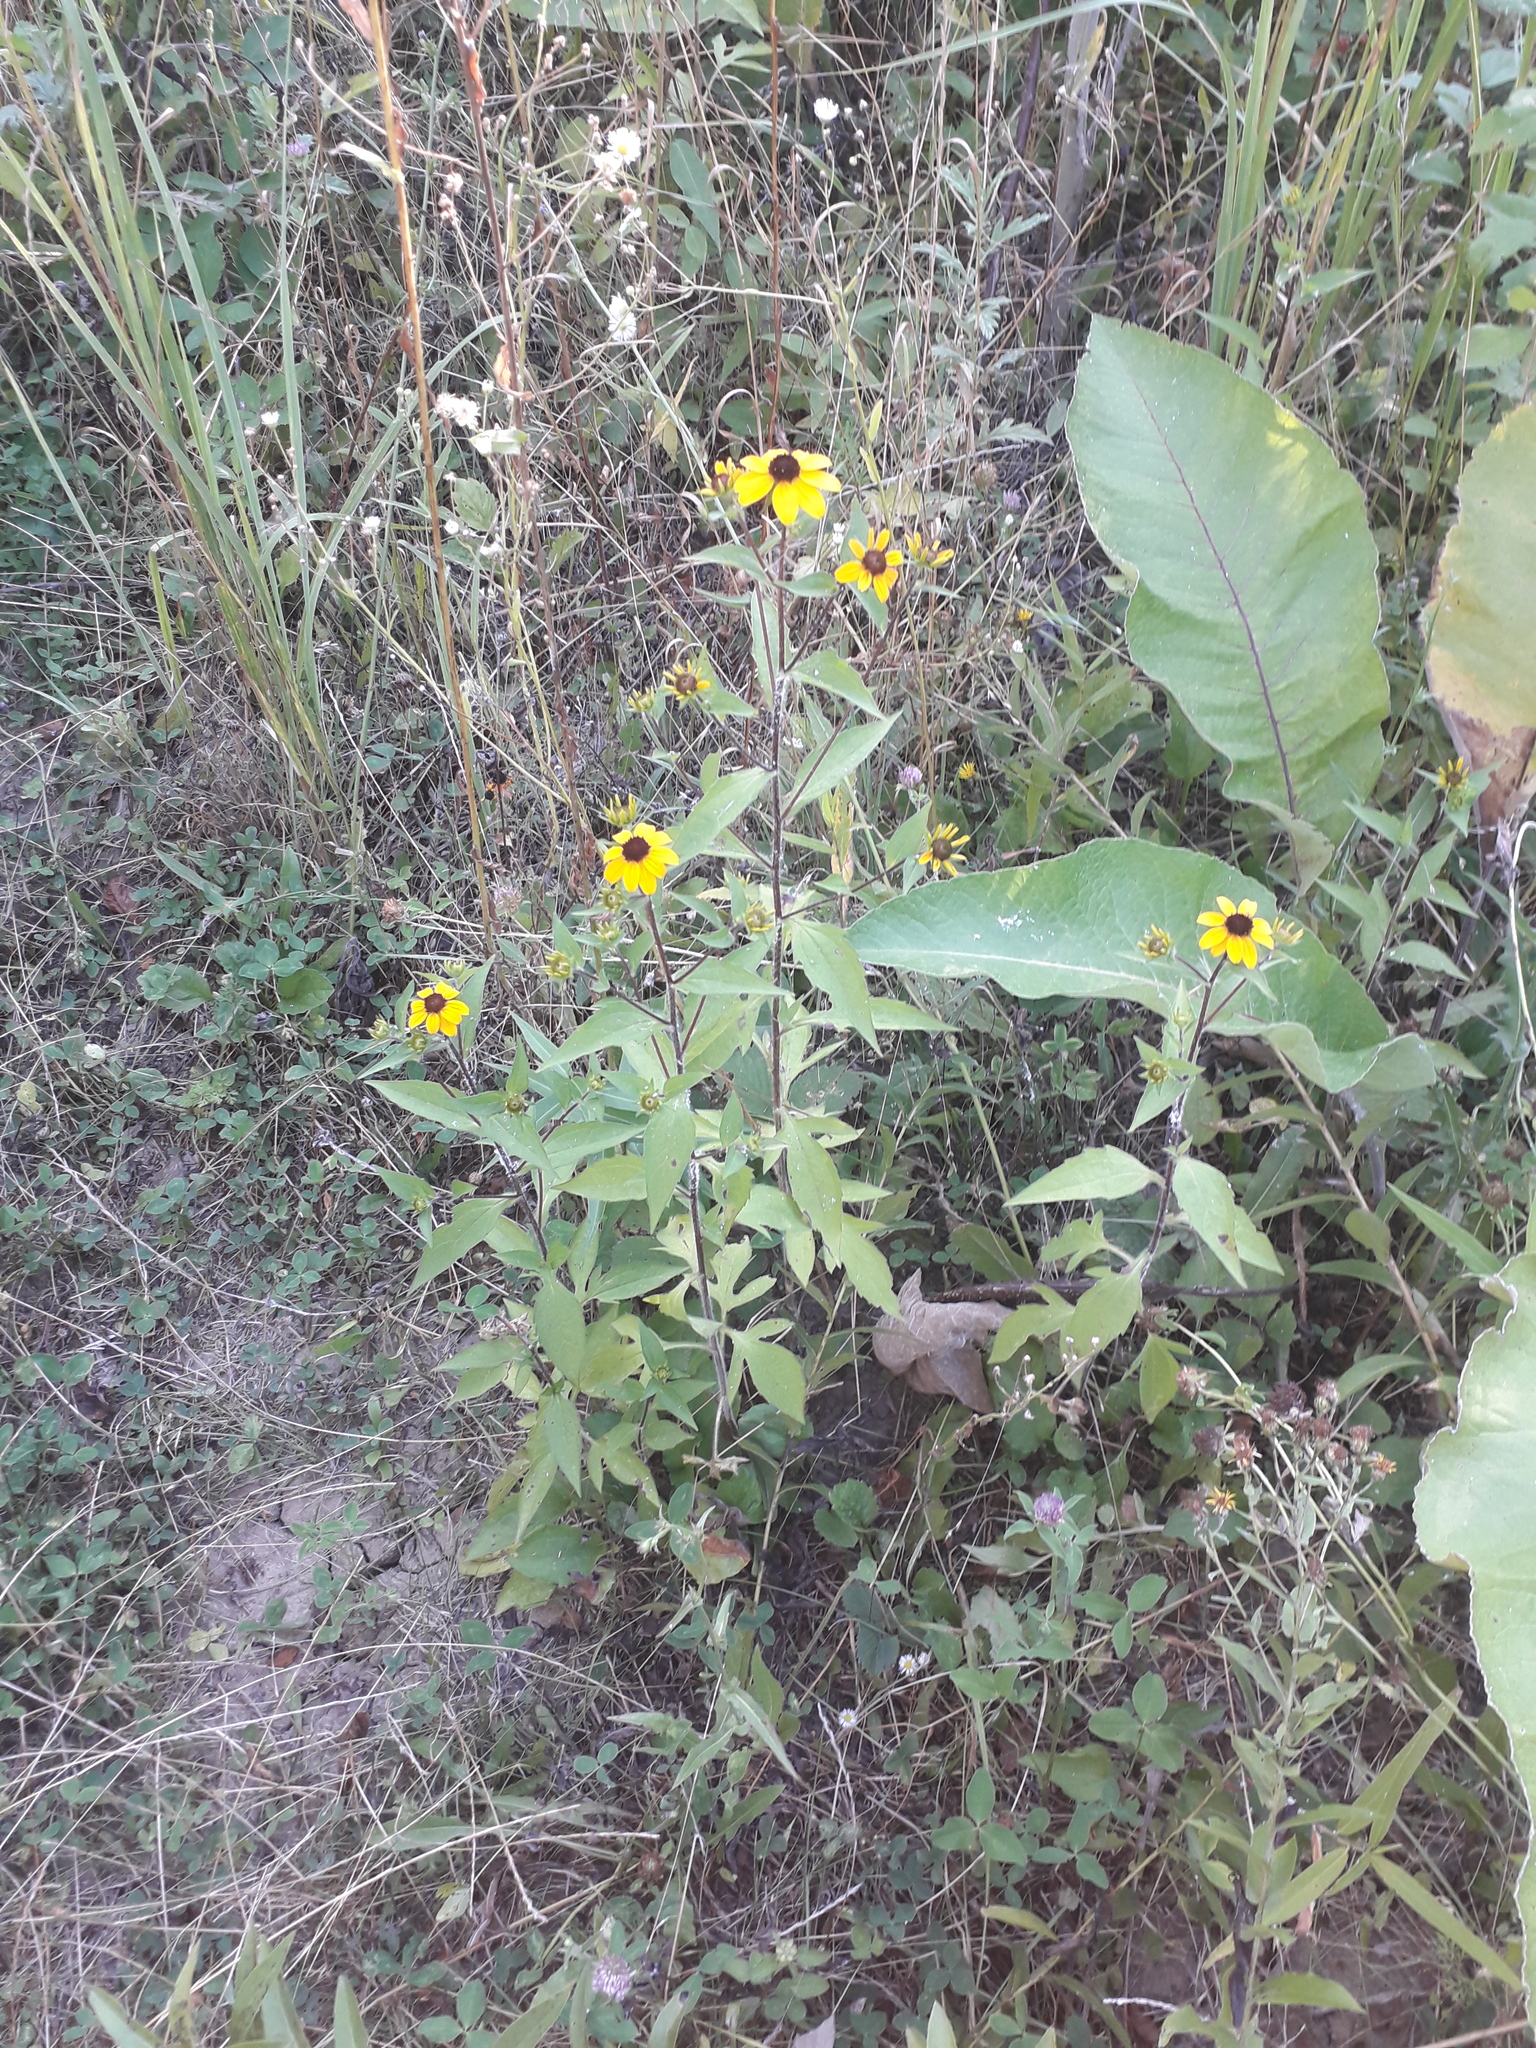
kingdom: Plantae
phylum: Tracheophyta
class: Magnoliopsida
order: Asterales
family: Asteraceae
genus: Rudbeckia
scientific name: Rudbeckia triloba
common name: Thin-leaved coneflower
